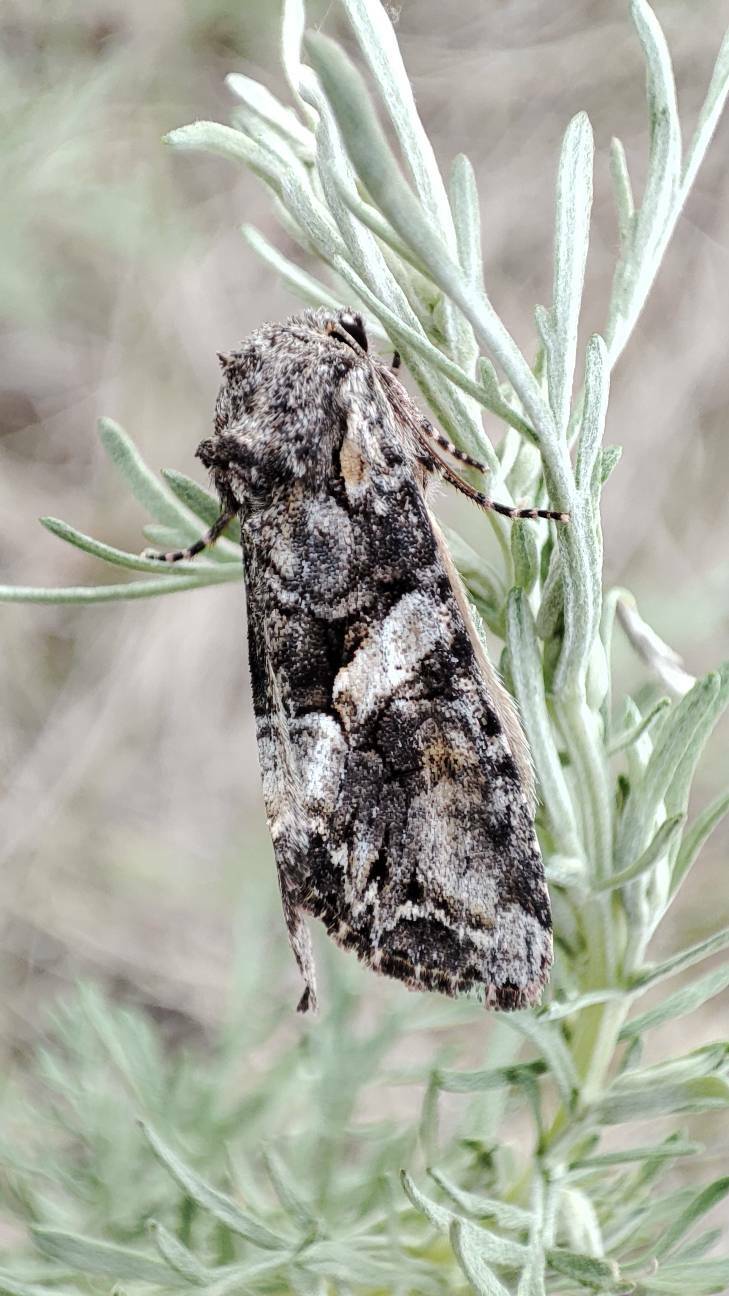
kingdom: Animalia
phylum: Arthropoda
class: Insecta
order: Lepidoptera
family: Noctuidae
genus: Lacanobia
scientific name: Lacanobia contigua
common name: Beautiful brocade
